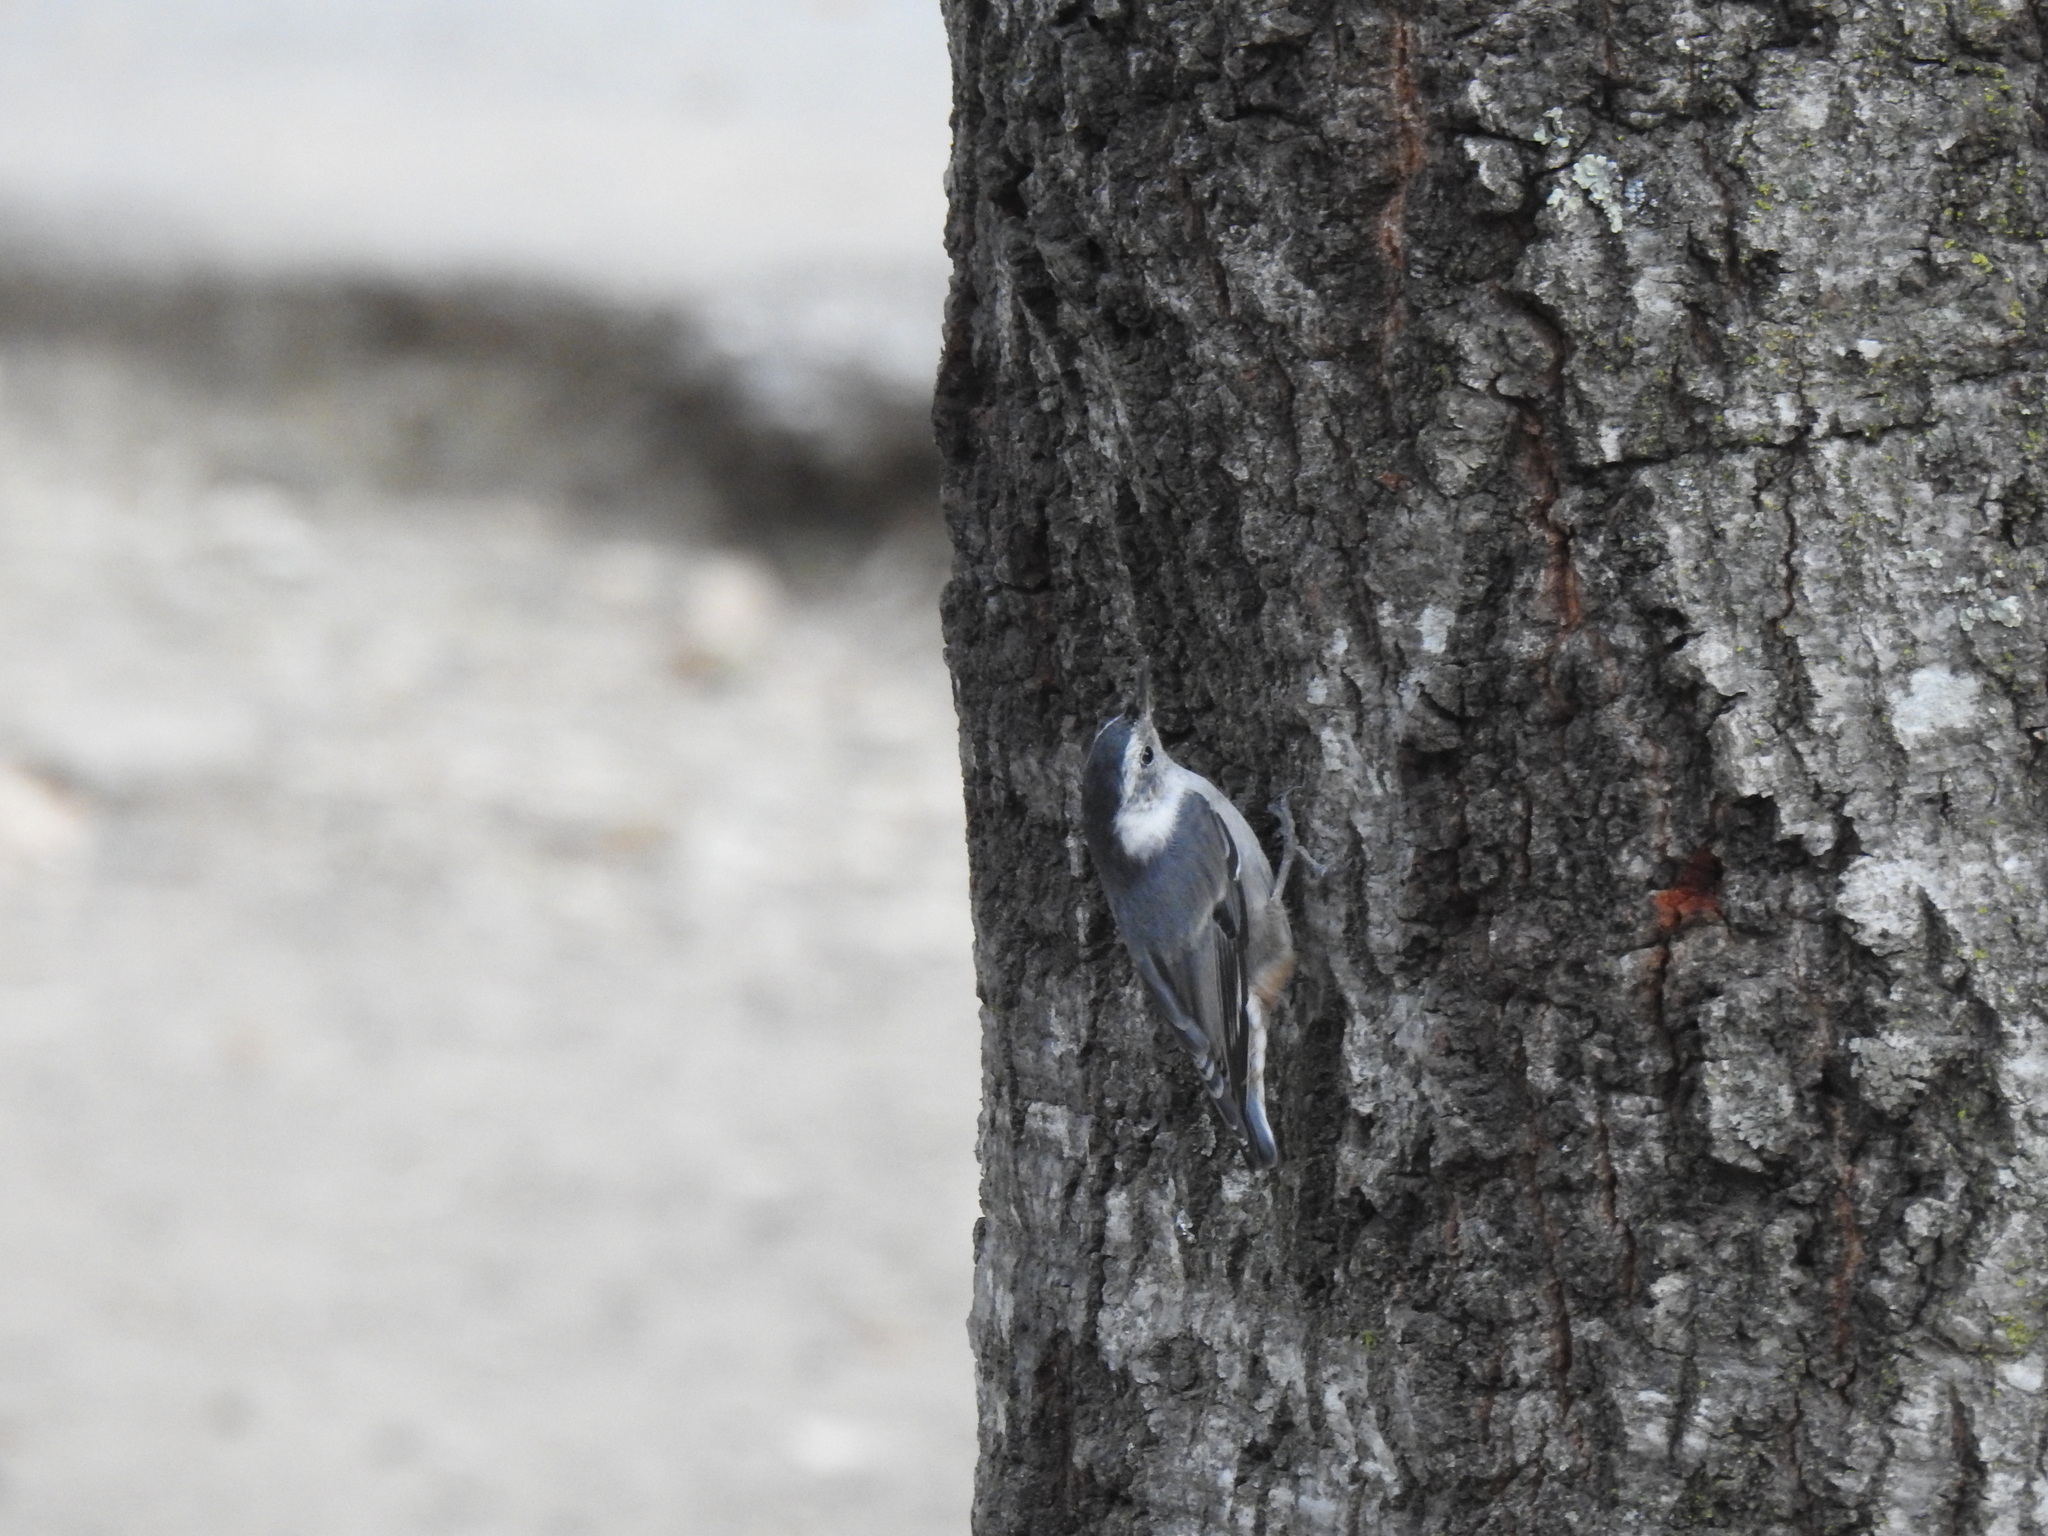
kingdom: Animalia
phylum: Chordata
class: Aves
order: Passeriformes
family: Sittidae
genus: Sitta
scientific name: Sitta carolinensis
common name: White-breasted nuthatch
